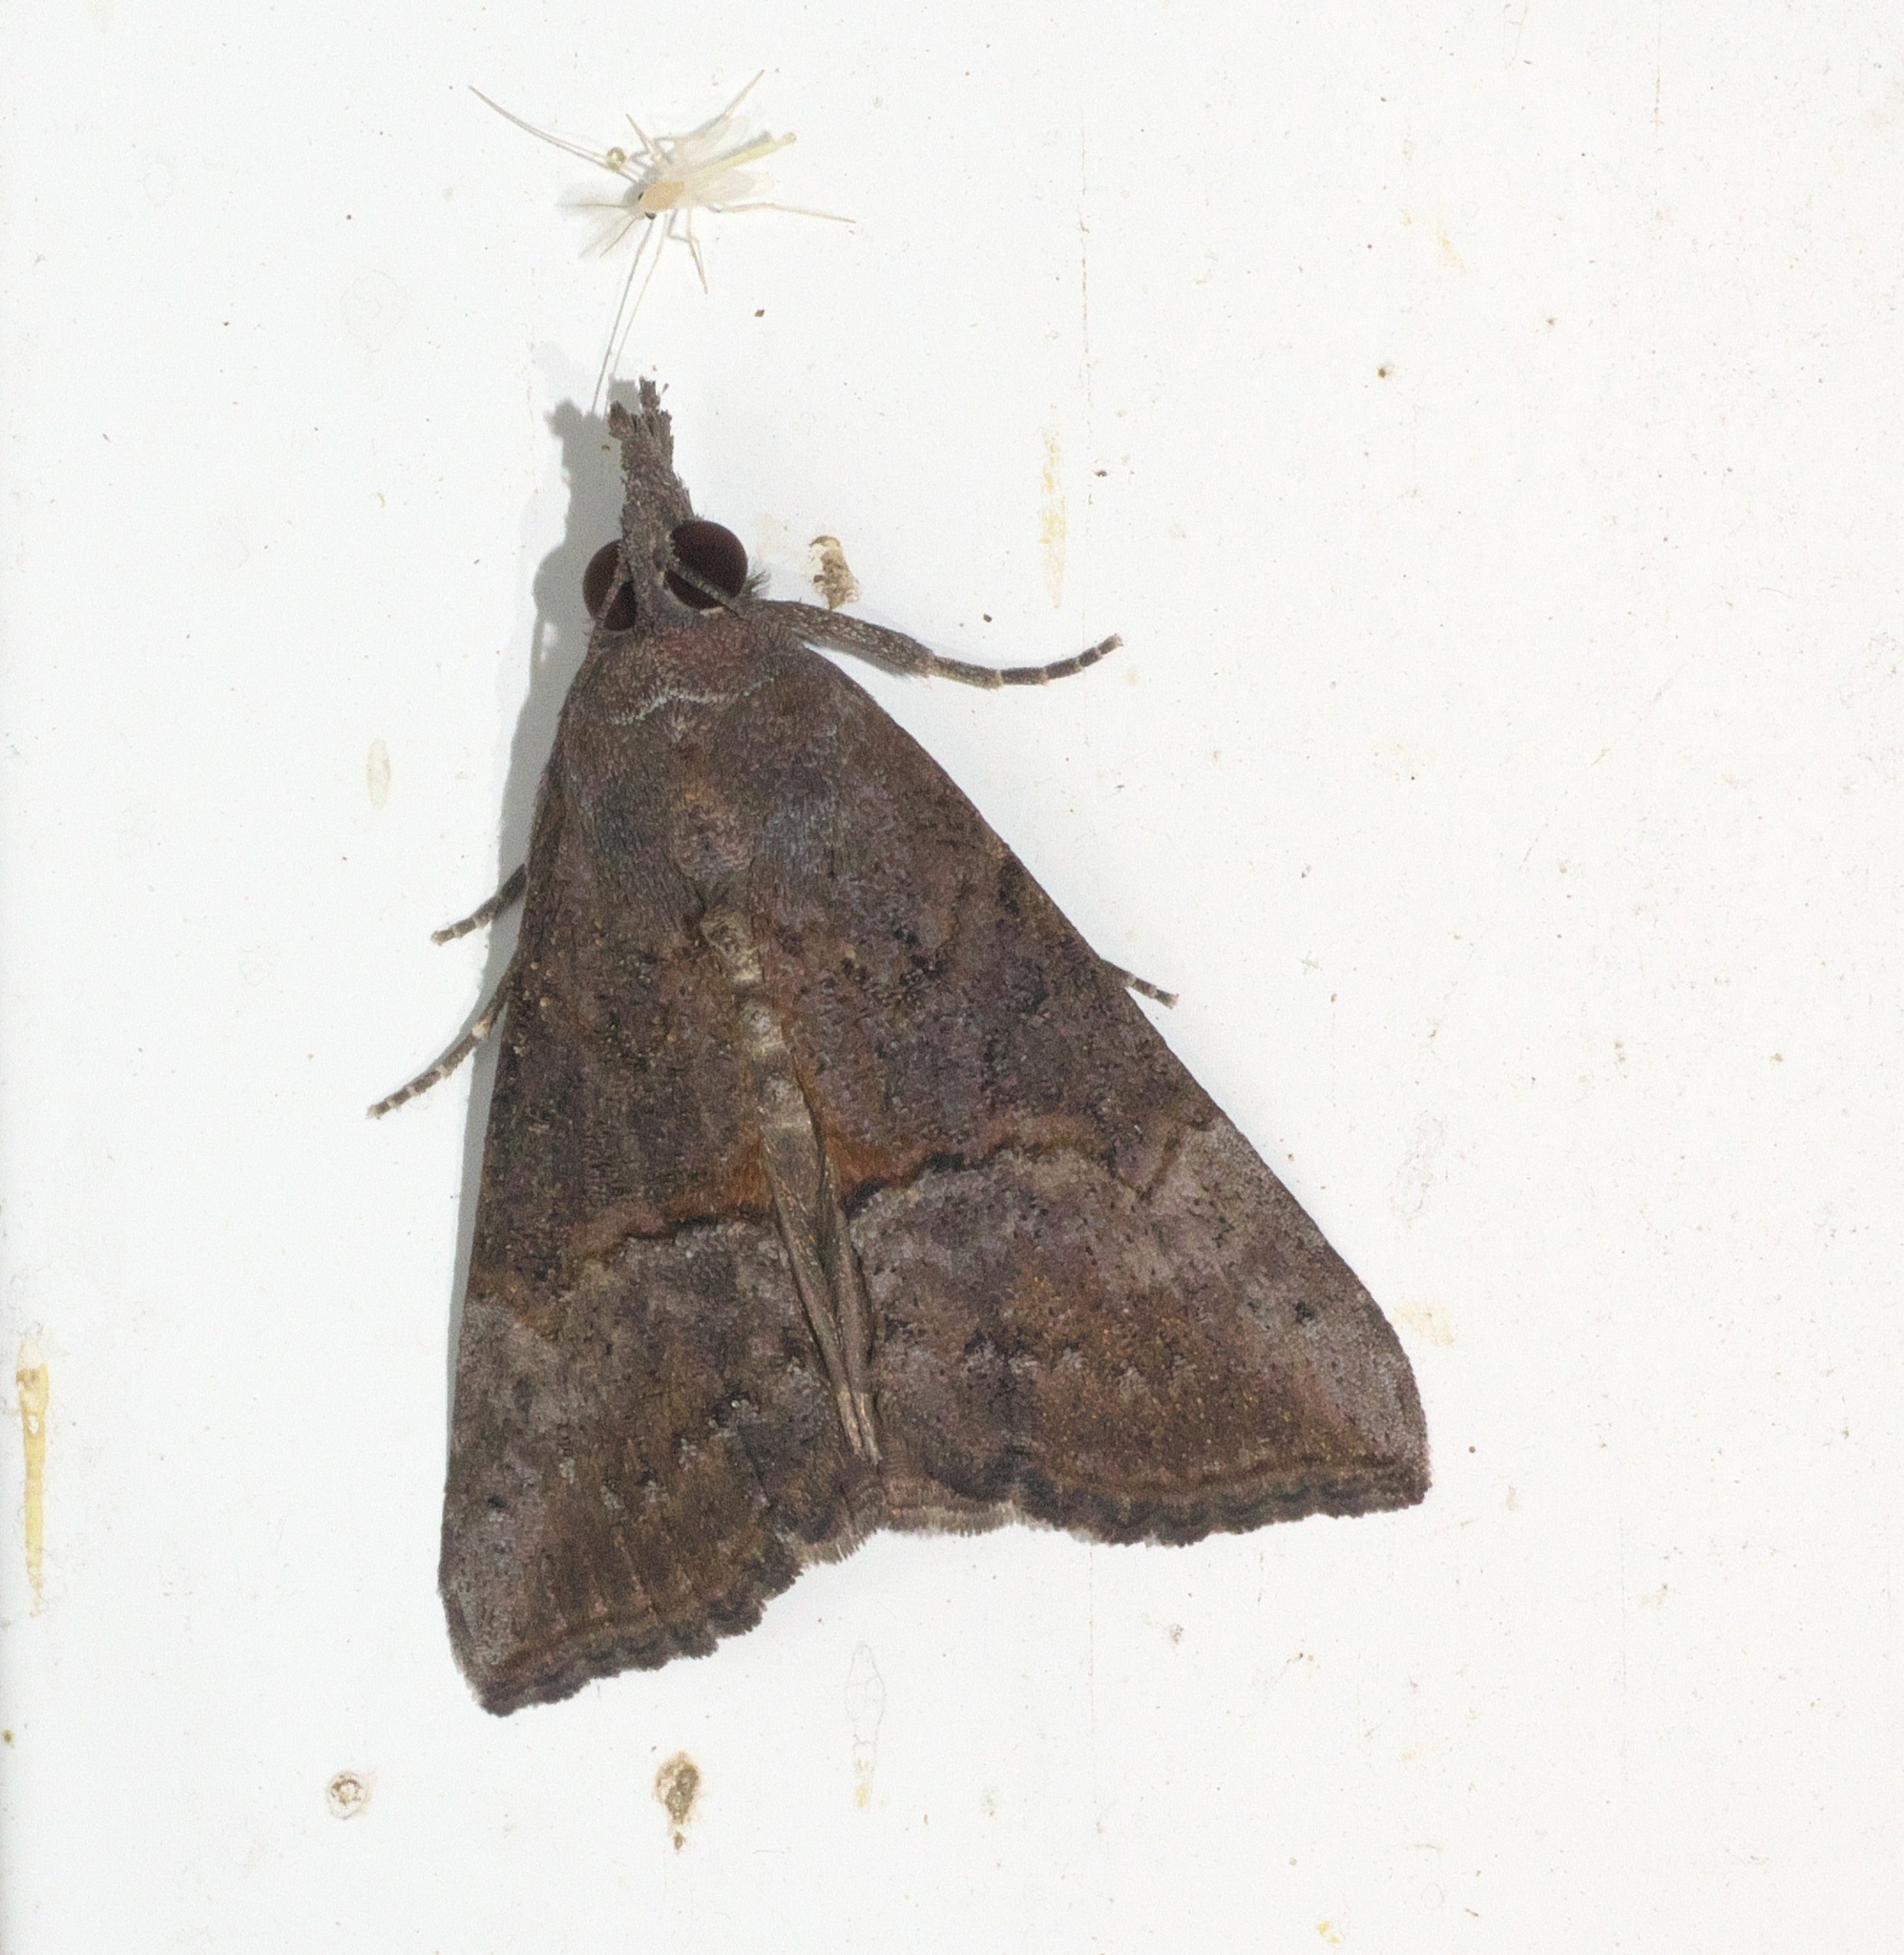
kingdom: Animalia
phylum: Arthropoda
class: Insecta
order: Lepidoptera
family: Erebidae
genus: Hypena
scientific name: Hypena scabra
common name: Green cloverworm
